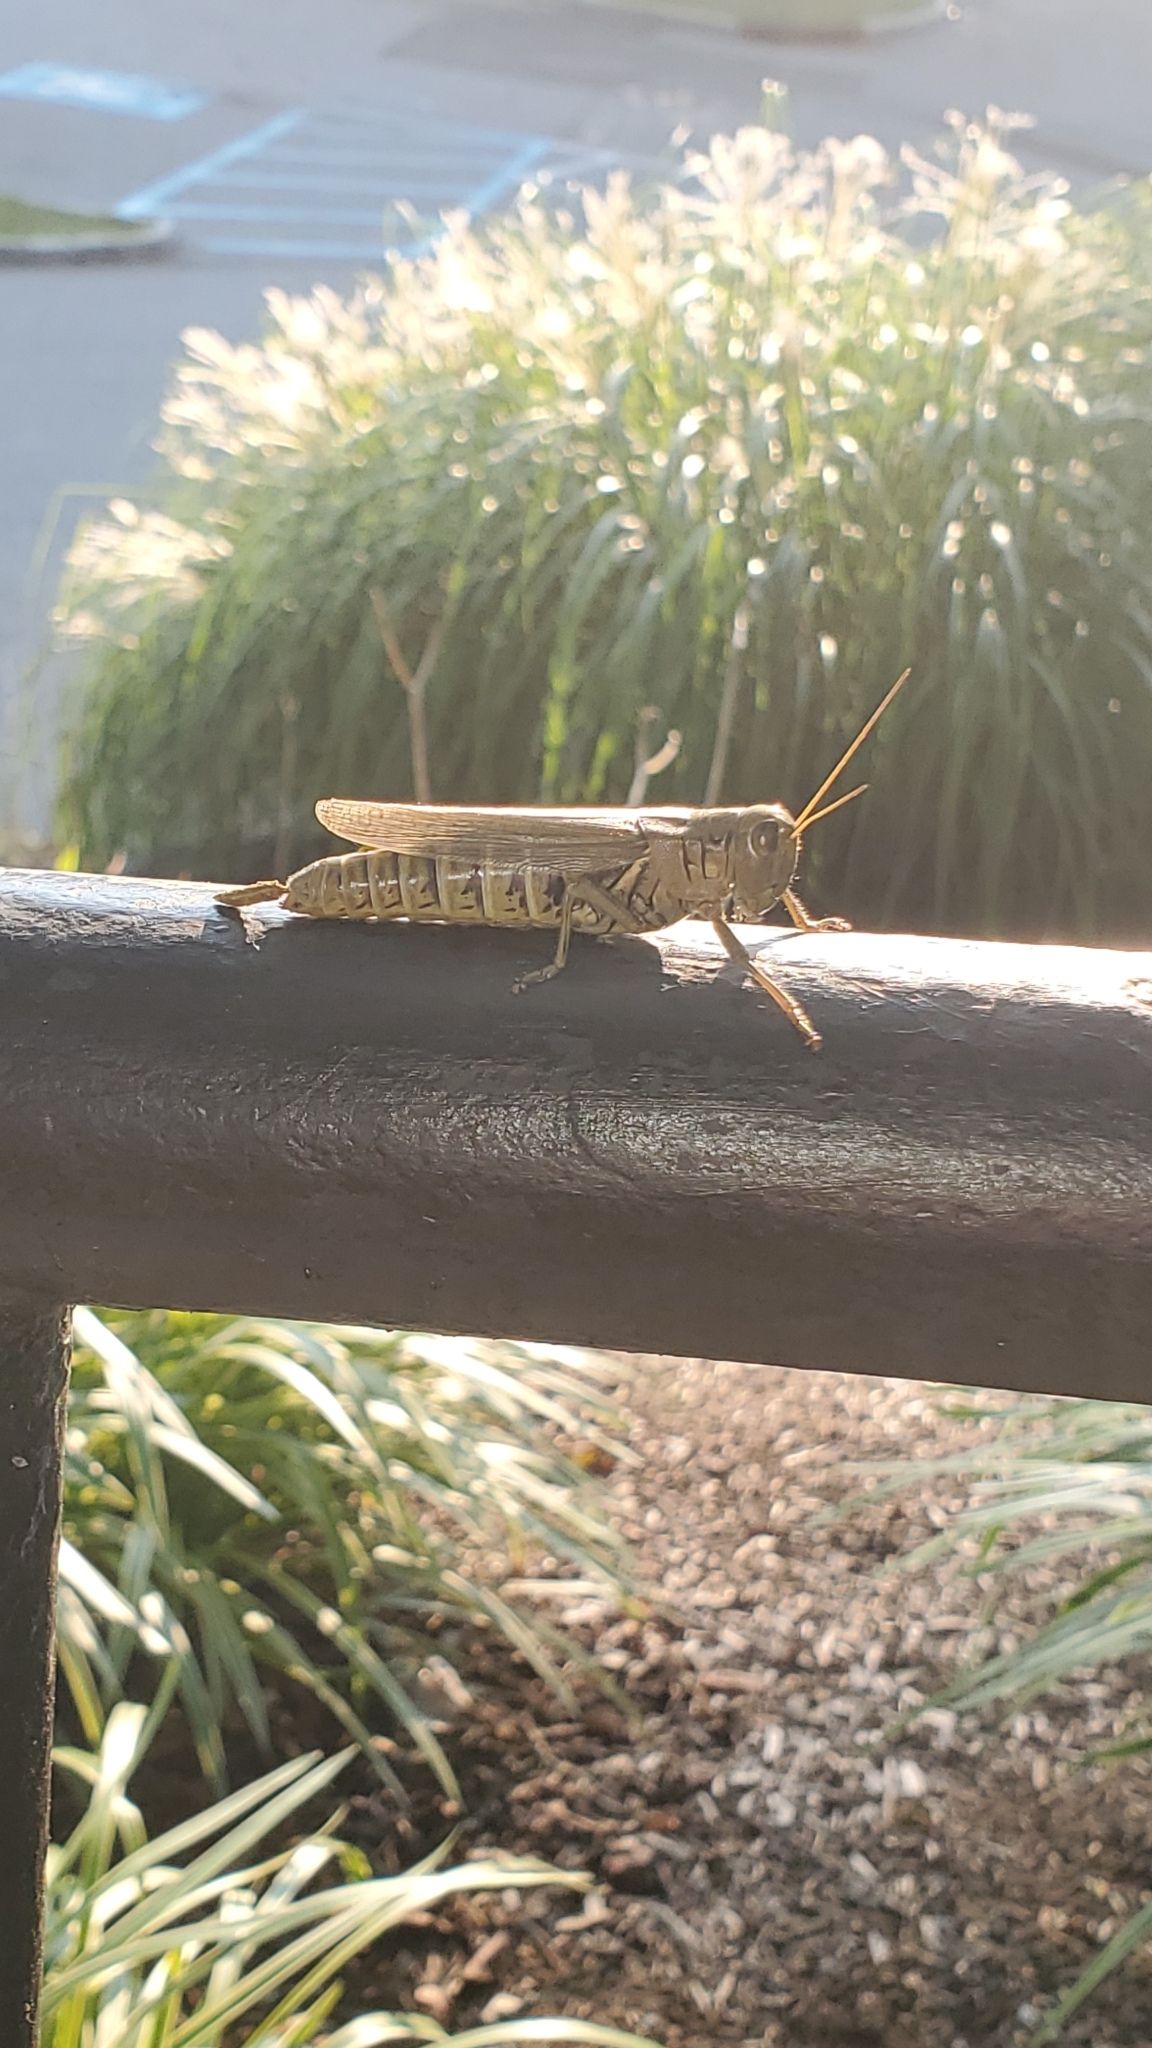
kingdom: Animalia
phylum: Arthropoda
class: Insecta
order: Orthoptera
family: Acrididae
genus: Melanoplus
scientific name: Melanoplus differentialis
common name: Differential grasshopper
